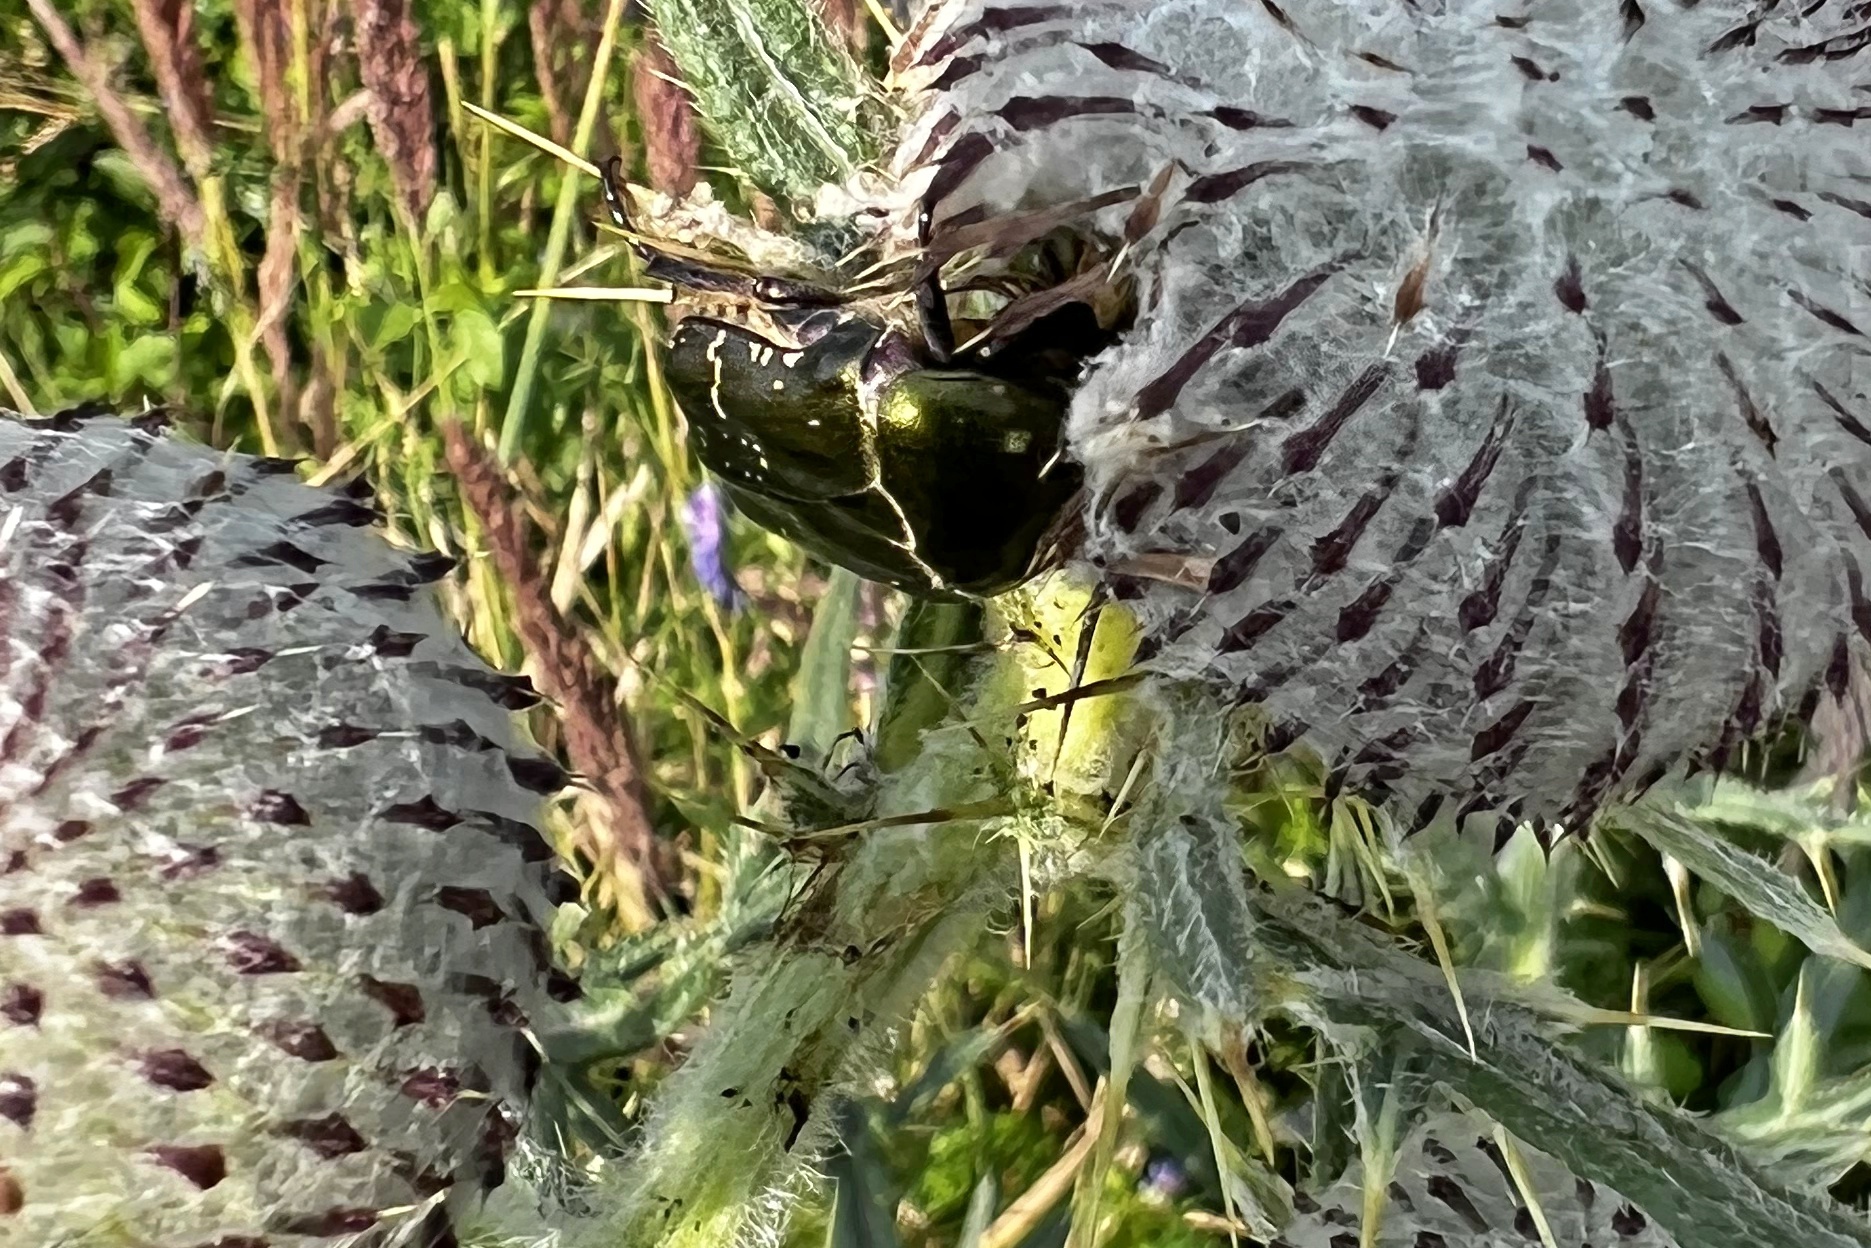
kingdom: Animalia
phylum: Arthropoda
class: Insecta
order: Coleoptera
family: Scarabaeidae
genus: Protaetia
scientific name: Protaetia cuprea
